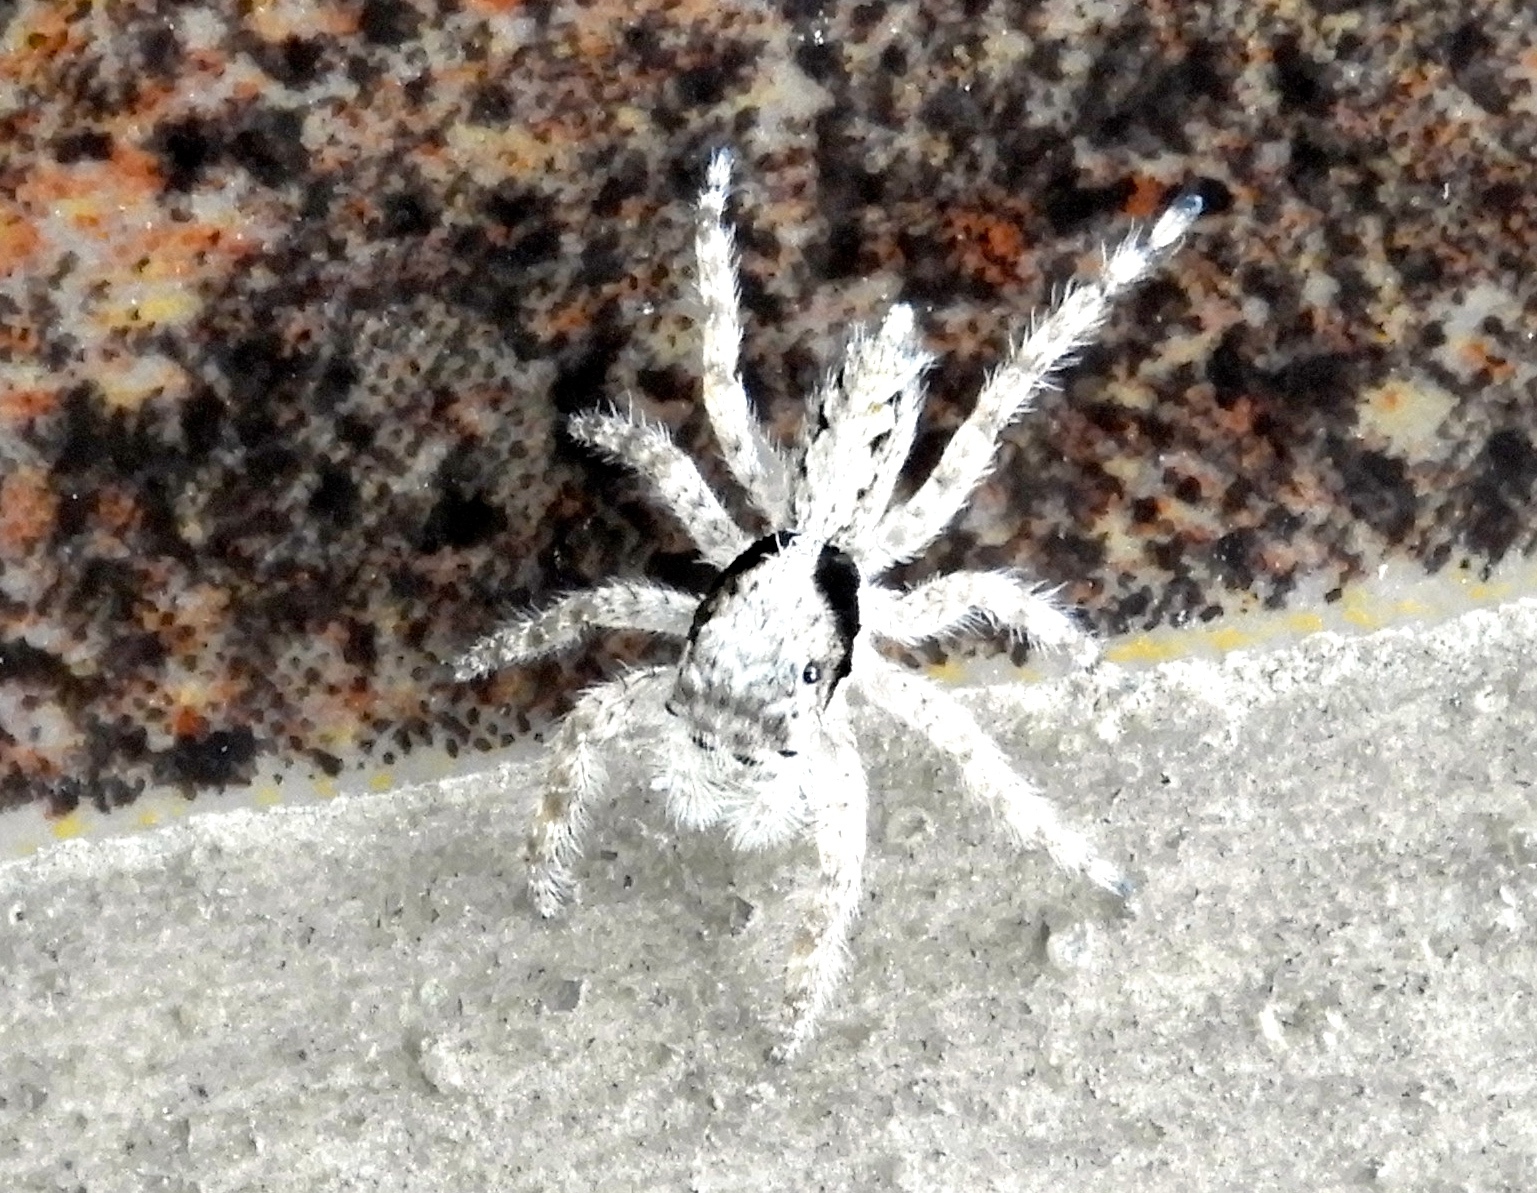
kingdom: Animalia
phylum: Arthropoda
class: Arachnida
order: Araneae
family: Salticidae
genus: Balmaceda
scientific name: Balmaceda
